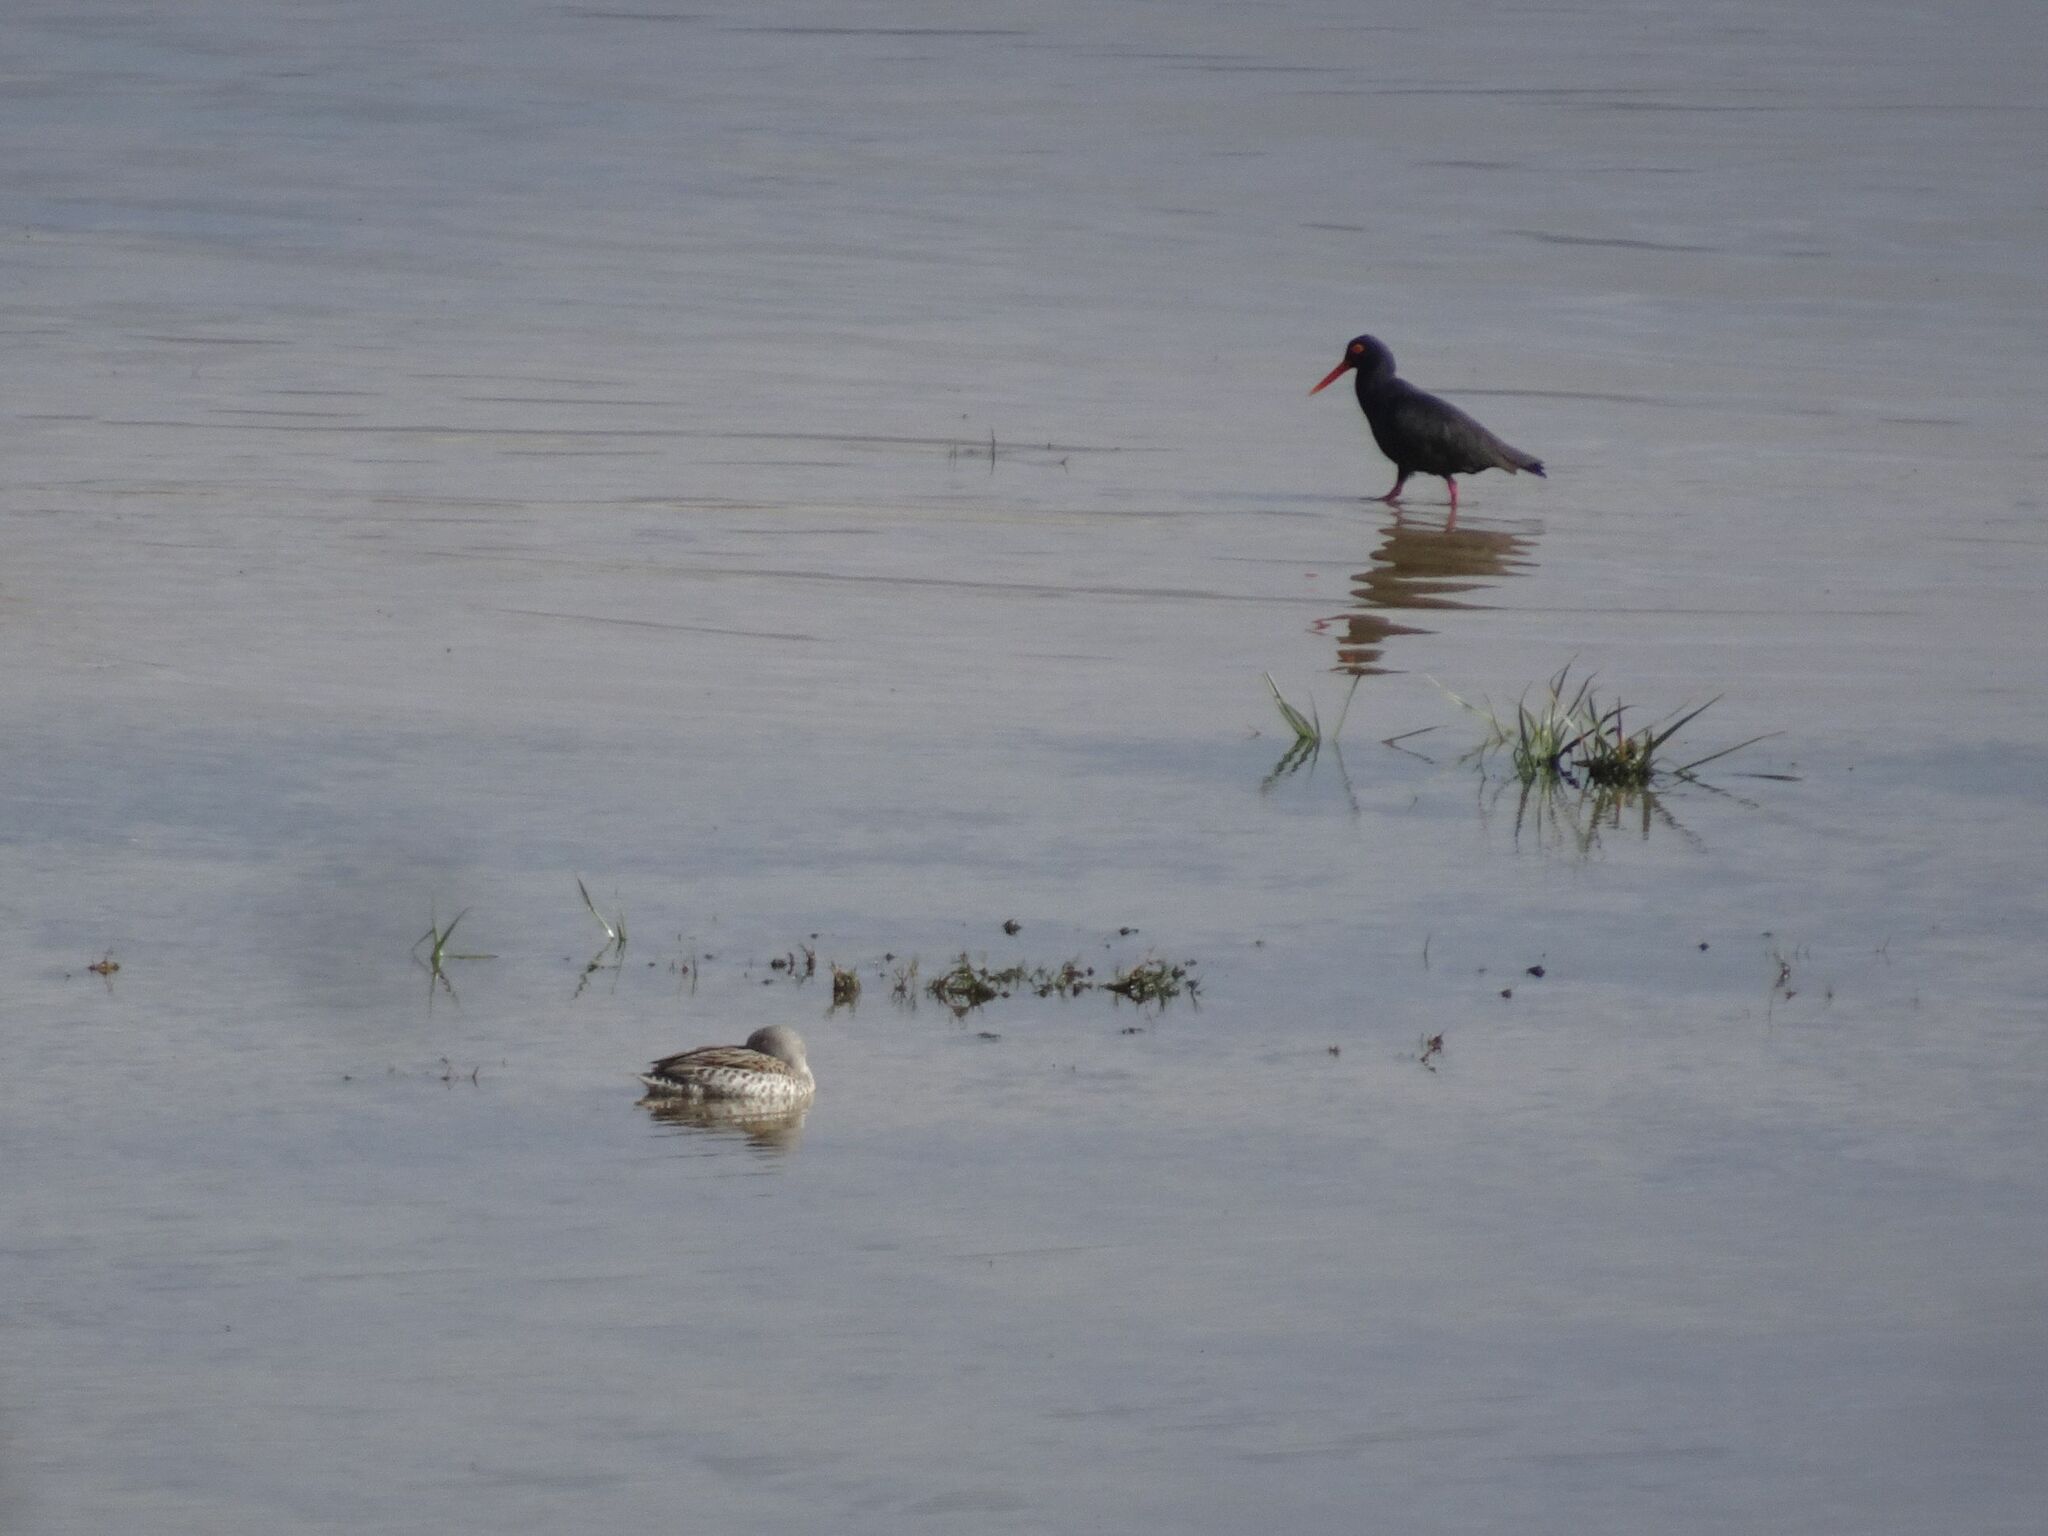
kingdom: Animalia
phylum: Chordata
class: Aves
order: Charadriiformes
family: Haematopodidae
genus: Haematopus
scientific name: Haematopus moquini
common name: African oystercatcher
